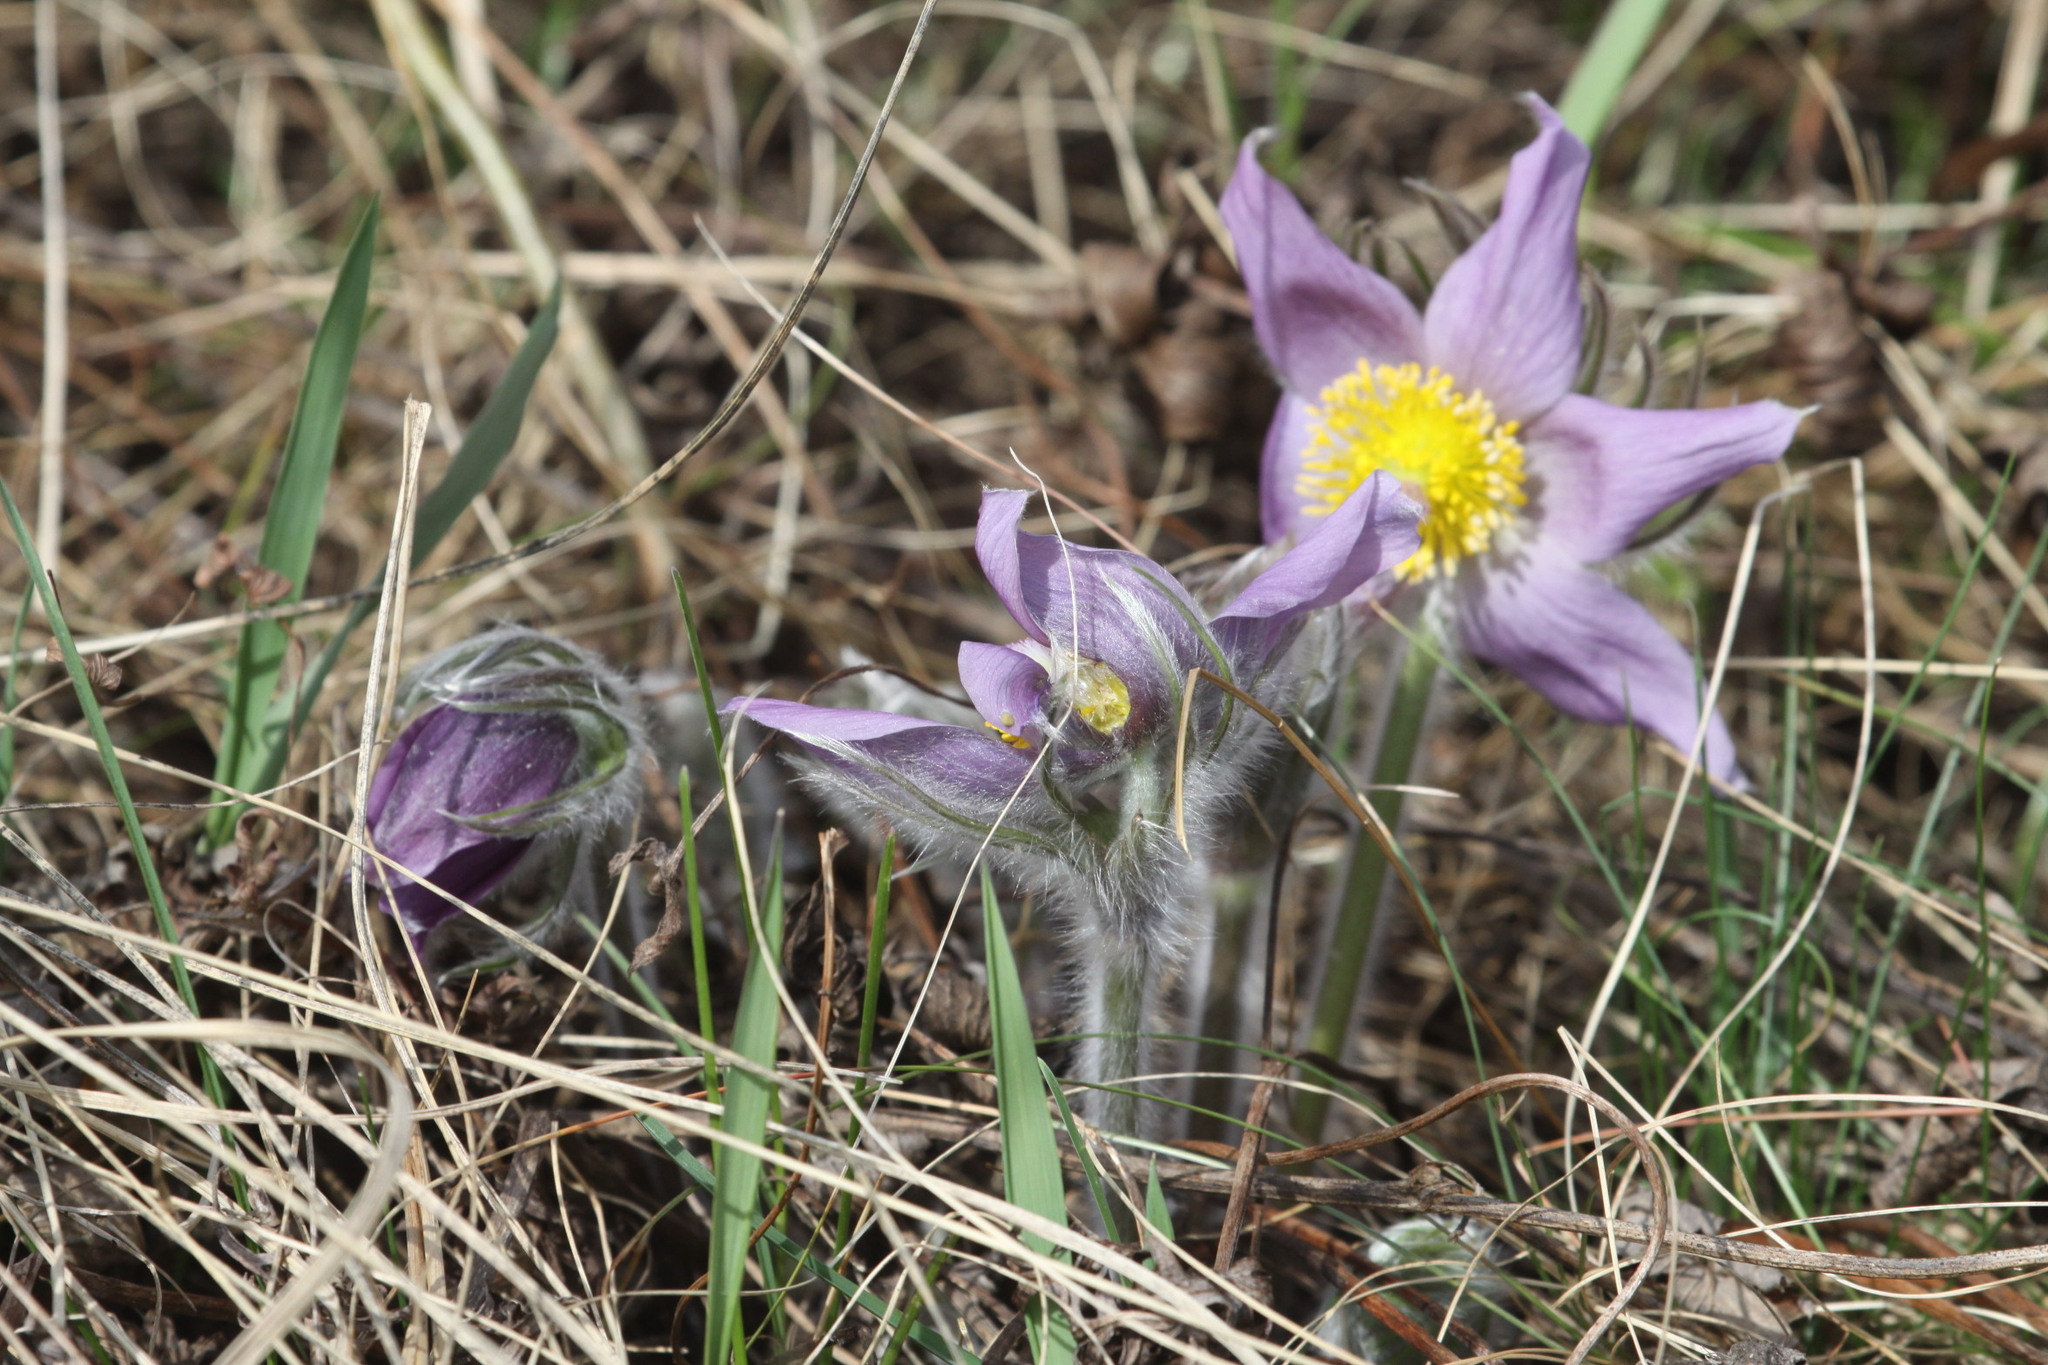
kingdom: Plantae
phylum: Tracheophyta
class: Magnoliopsida
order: Ranunculales
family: Ranunculaceae
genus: Pulsatilla
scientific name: Pulsatilla patens
